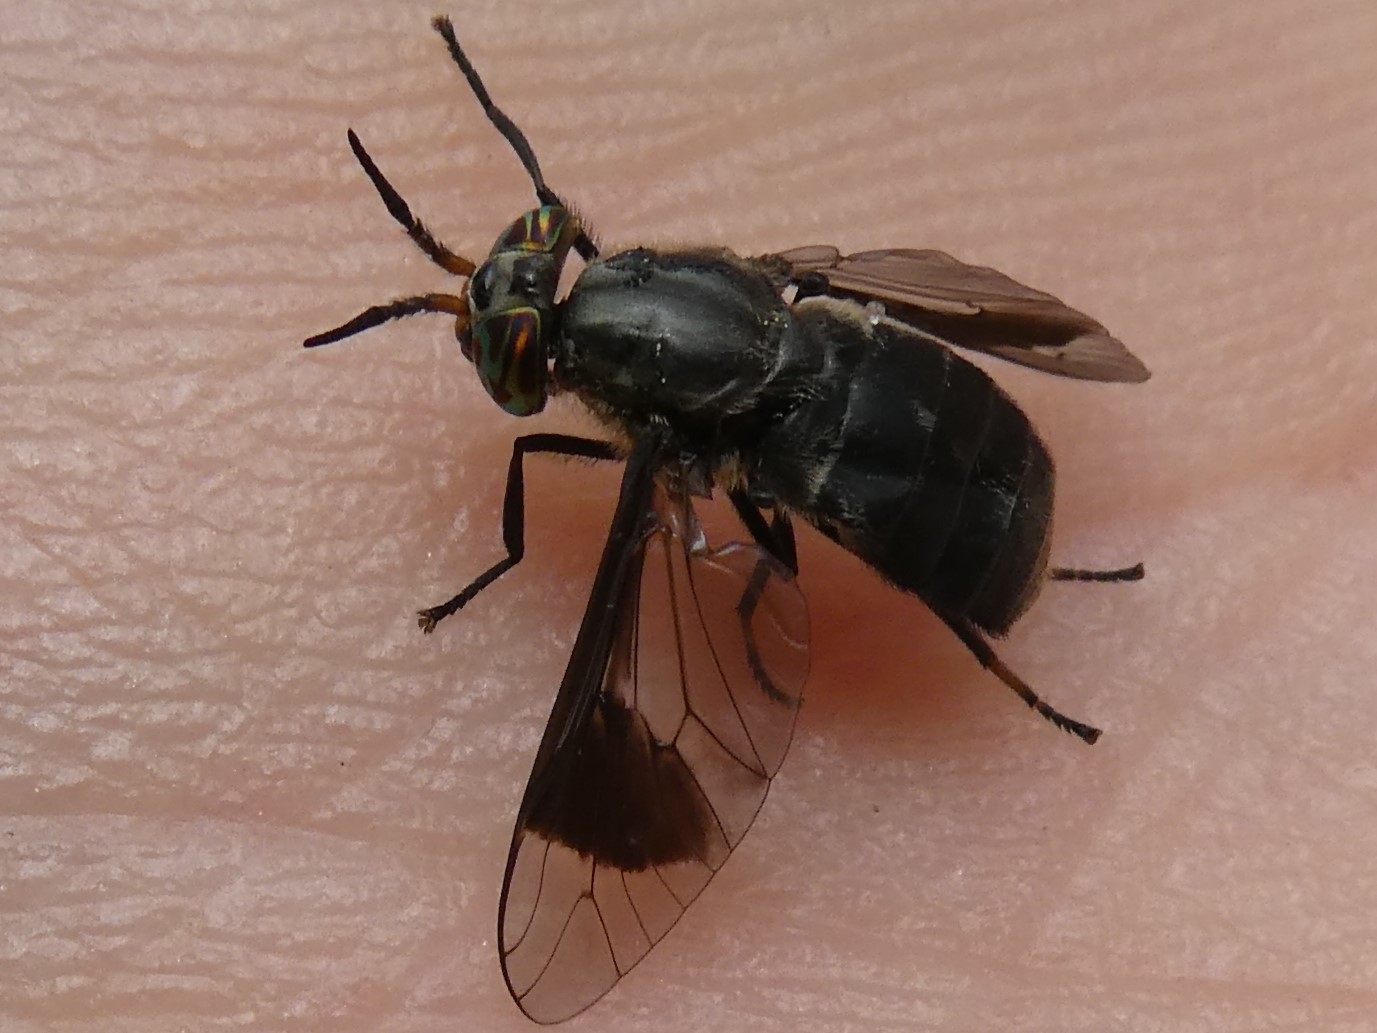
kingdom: Animalia
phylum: Arthropoda
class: Insecta
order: Diptera
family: Tabanidae
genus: Chrysops
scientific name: Chrysops niger
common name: Black deer fly
